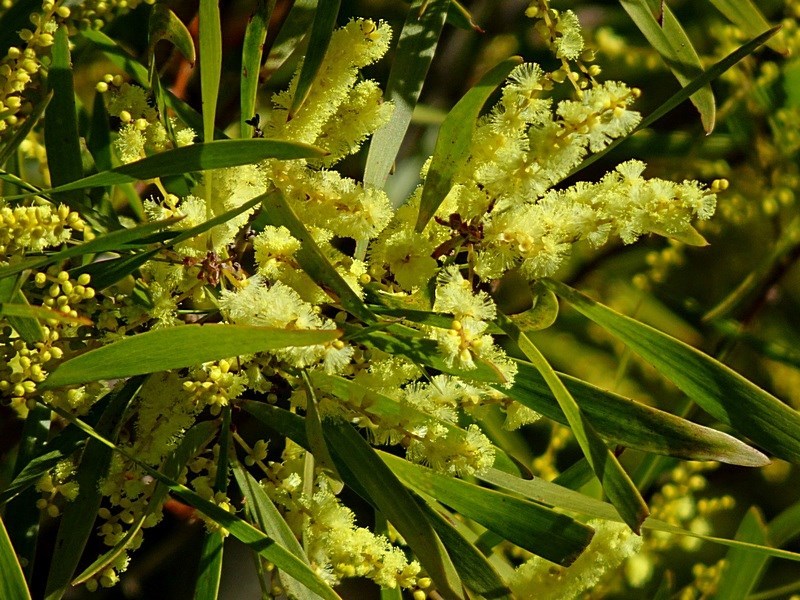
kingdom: Plantae
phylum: Tracheophyta
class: Magnoliopsida
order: Fabales
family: Fabaceae
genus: Acacia
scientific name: Acacia floribunda
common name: Gossamer wattle
